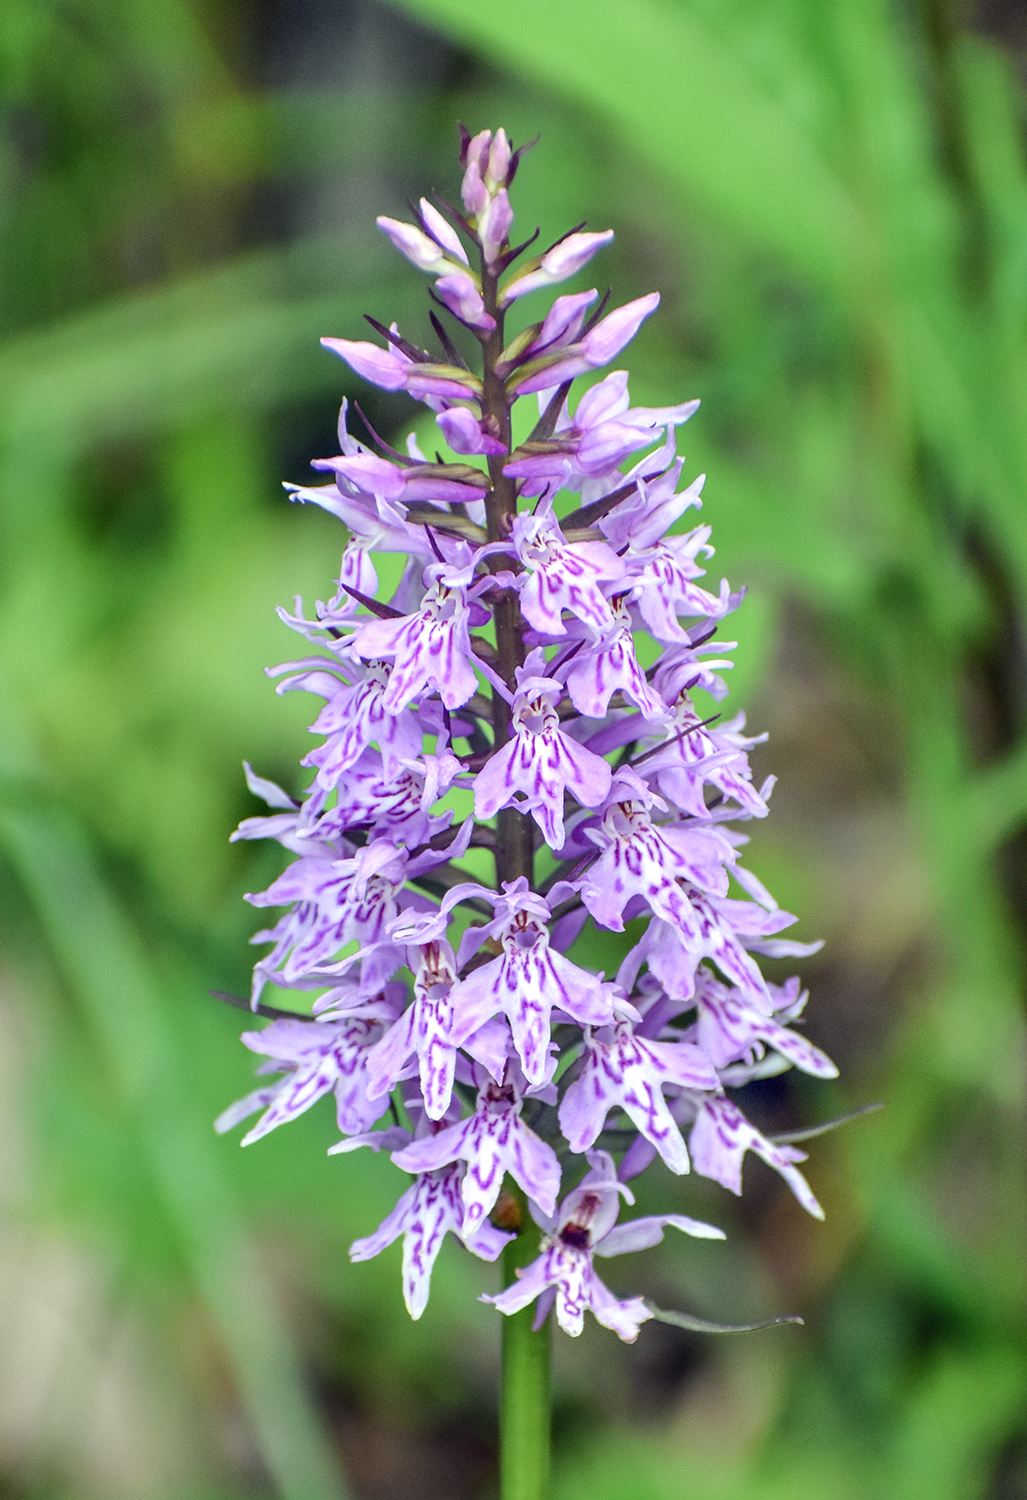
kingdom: Plantae
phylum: Tracheophyta
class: Liliopsida
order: Asparagales
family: Orchidaceae
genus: Dactylorhiza
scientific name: Dactylorhiza maculata
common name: Heath spotted-orchid
